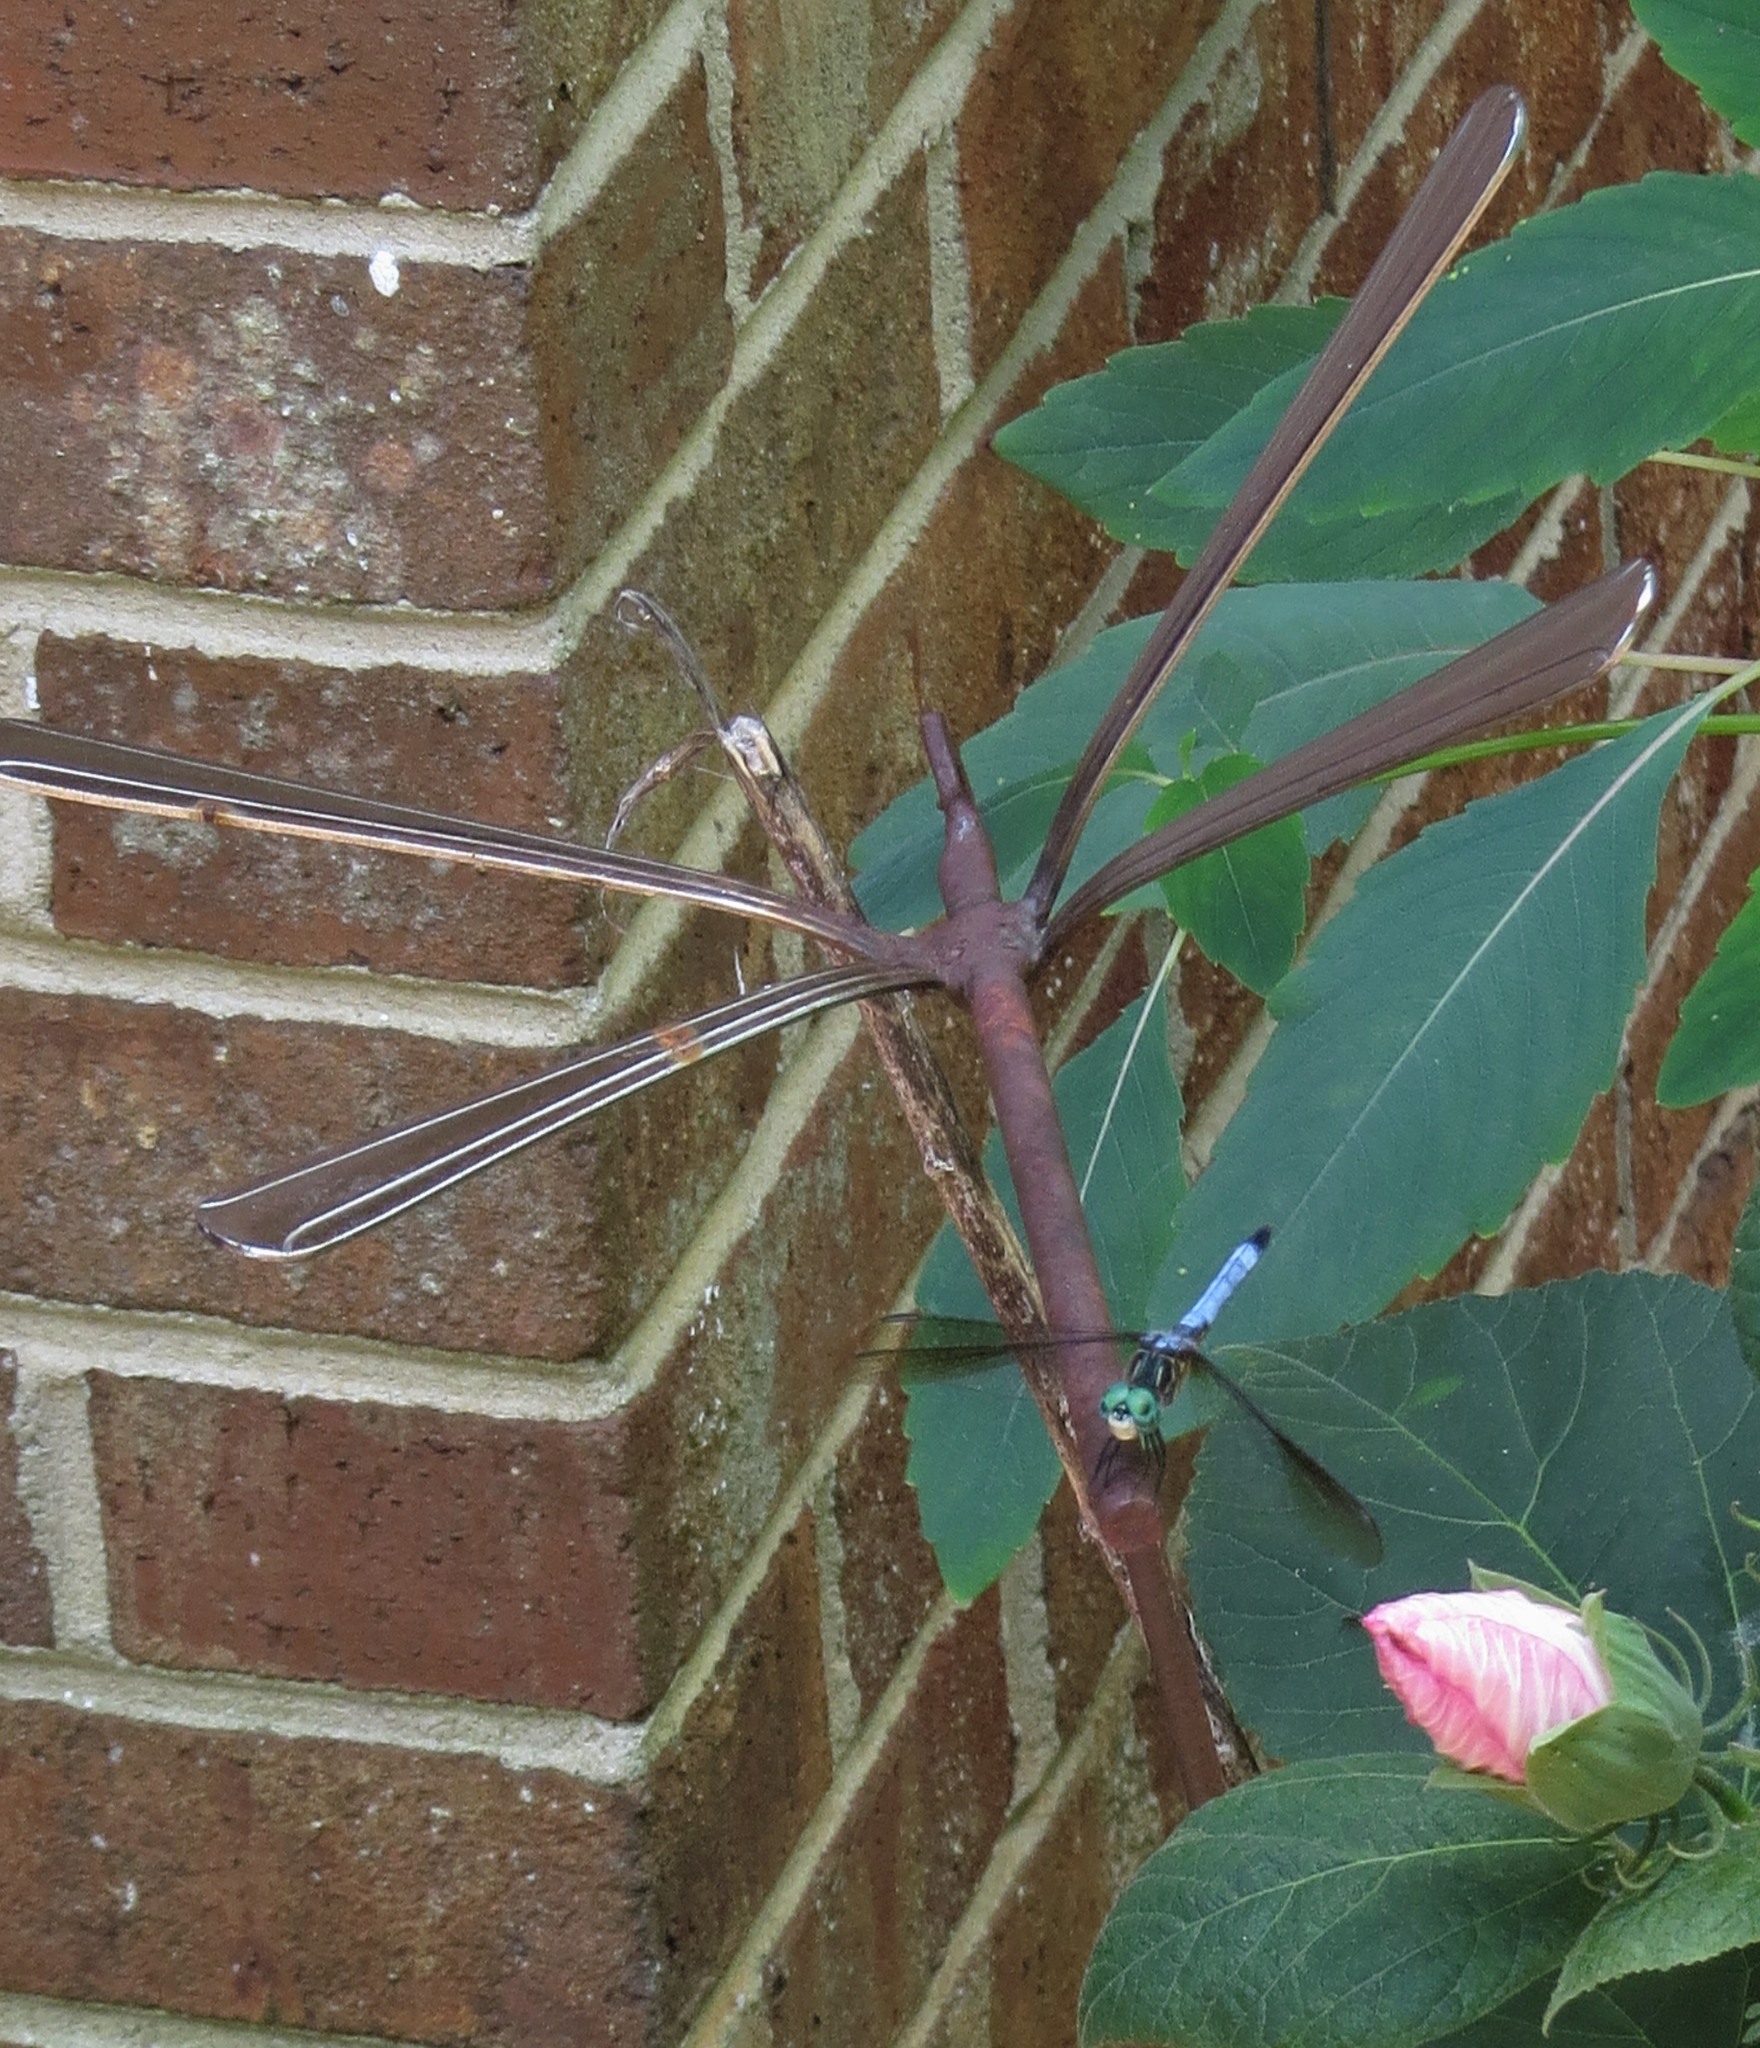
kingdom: Animalia
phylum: Arthropoda
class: Insecta
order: Odonata
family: Libellulidae
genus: Pachydiplax
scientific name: Pachydiplax longipennis
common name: Blue dasher
